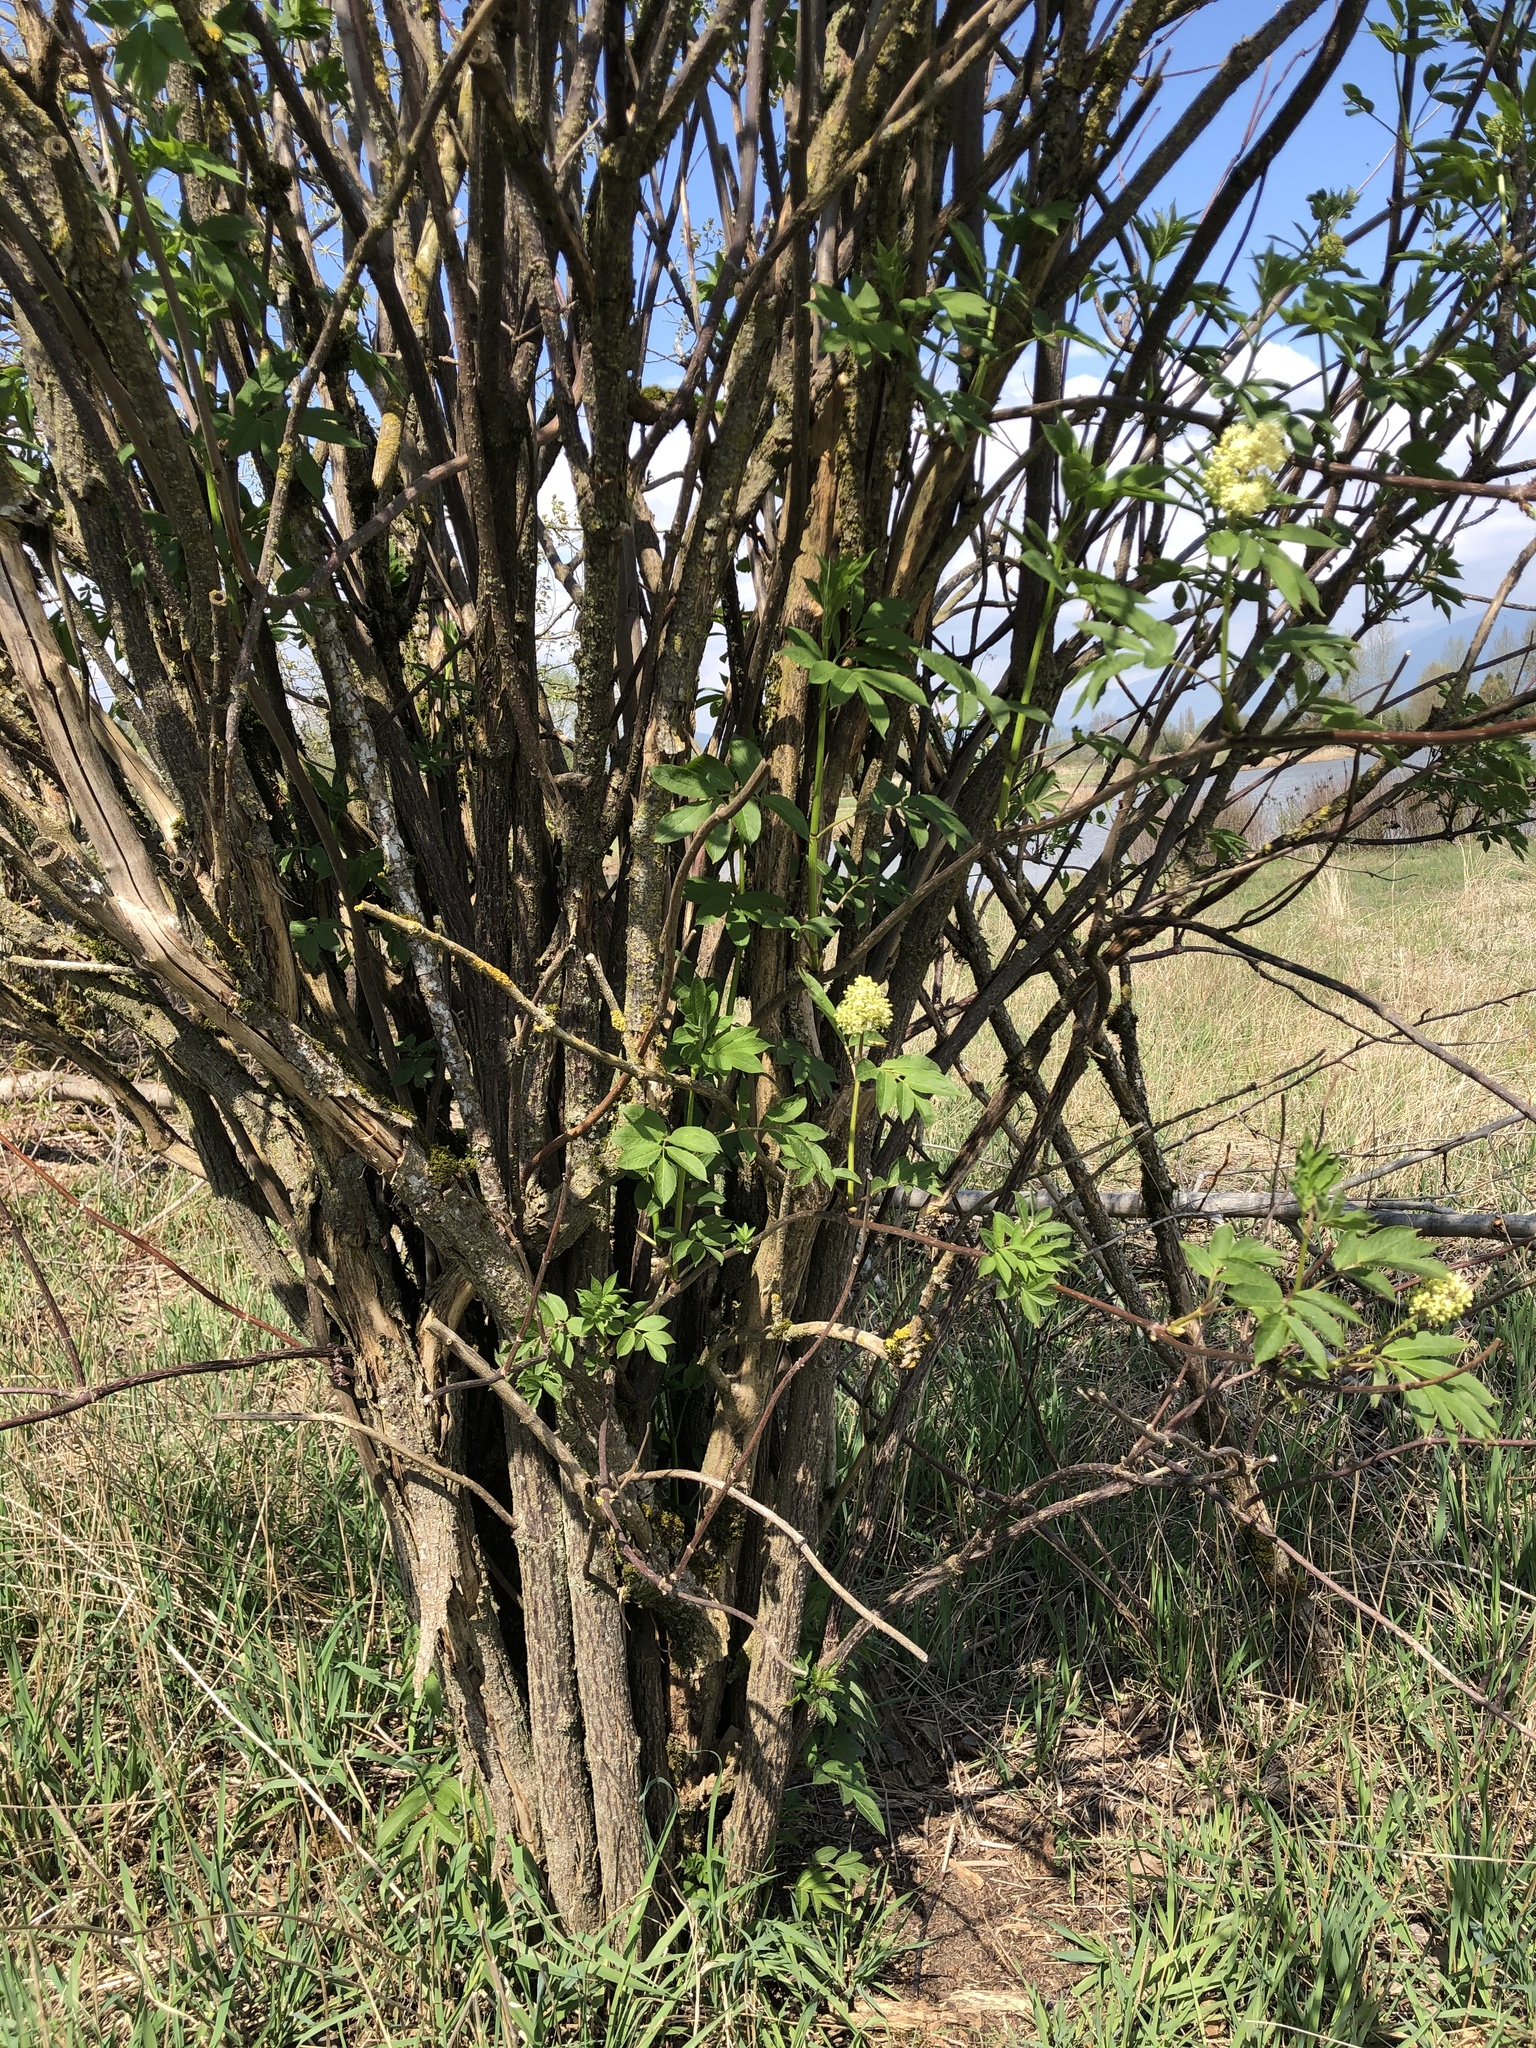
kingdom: Plantae
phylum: Tracheophyta
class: Magnoliopsida
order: Dipsacales
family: Viburnaceae
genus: Sambucus
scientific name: Sambucus racemosa
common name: Red-berried elder
